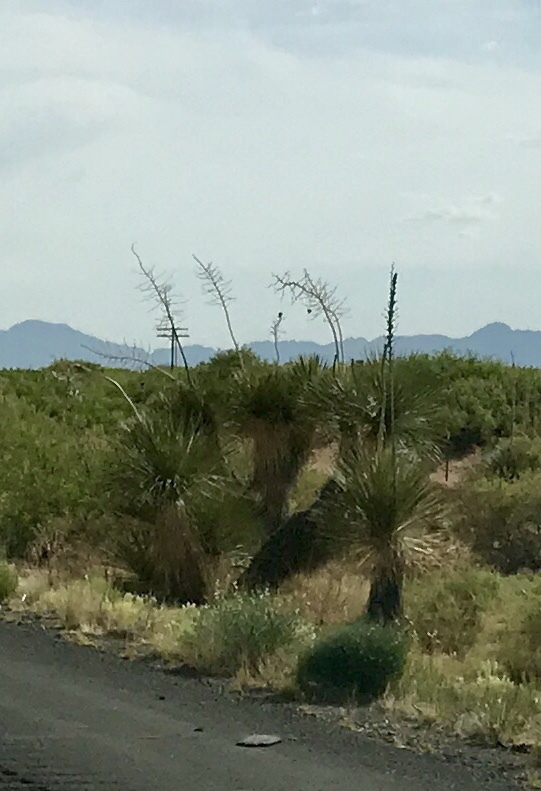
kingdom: Plantae
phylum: Tracheophyta
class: Liliopsida
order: Asparagales
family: Asparagaceae
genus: Yucca
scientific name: Yucca elata
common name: Palmella
